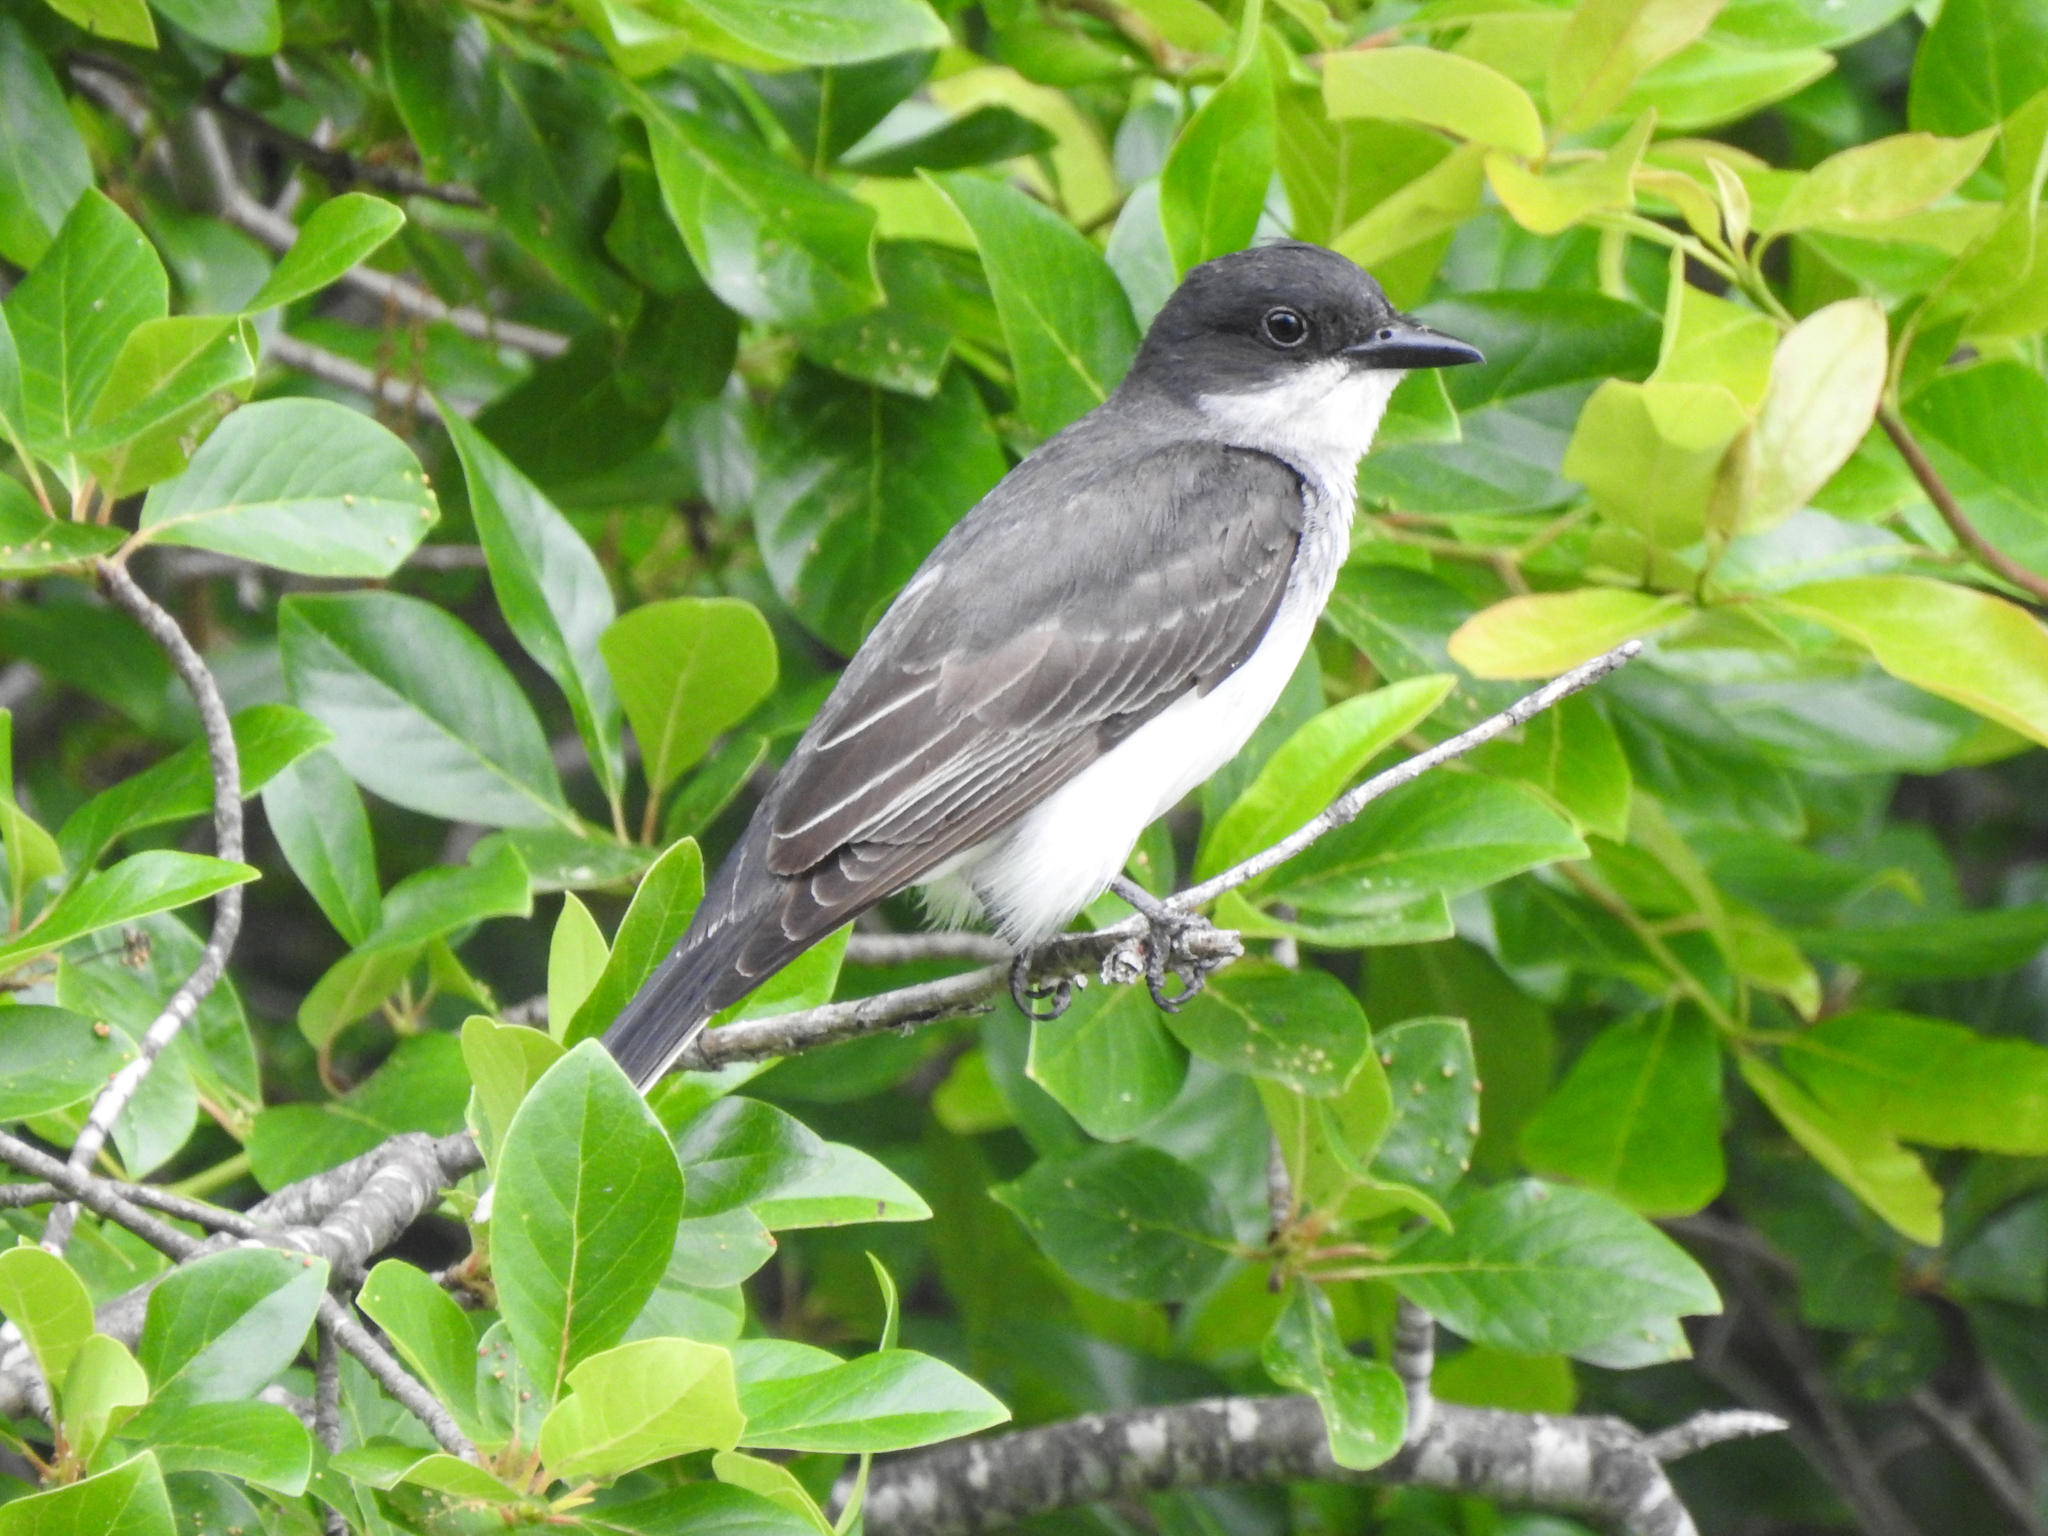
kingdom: Animalia
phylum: Chordata
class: Aves
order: Passeriformes
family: Tyrannidae
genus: Tyrannus
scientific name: Tyrannus tyrannus
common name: Eastern kingbird
